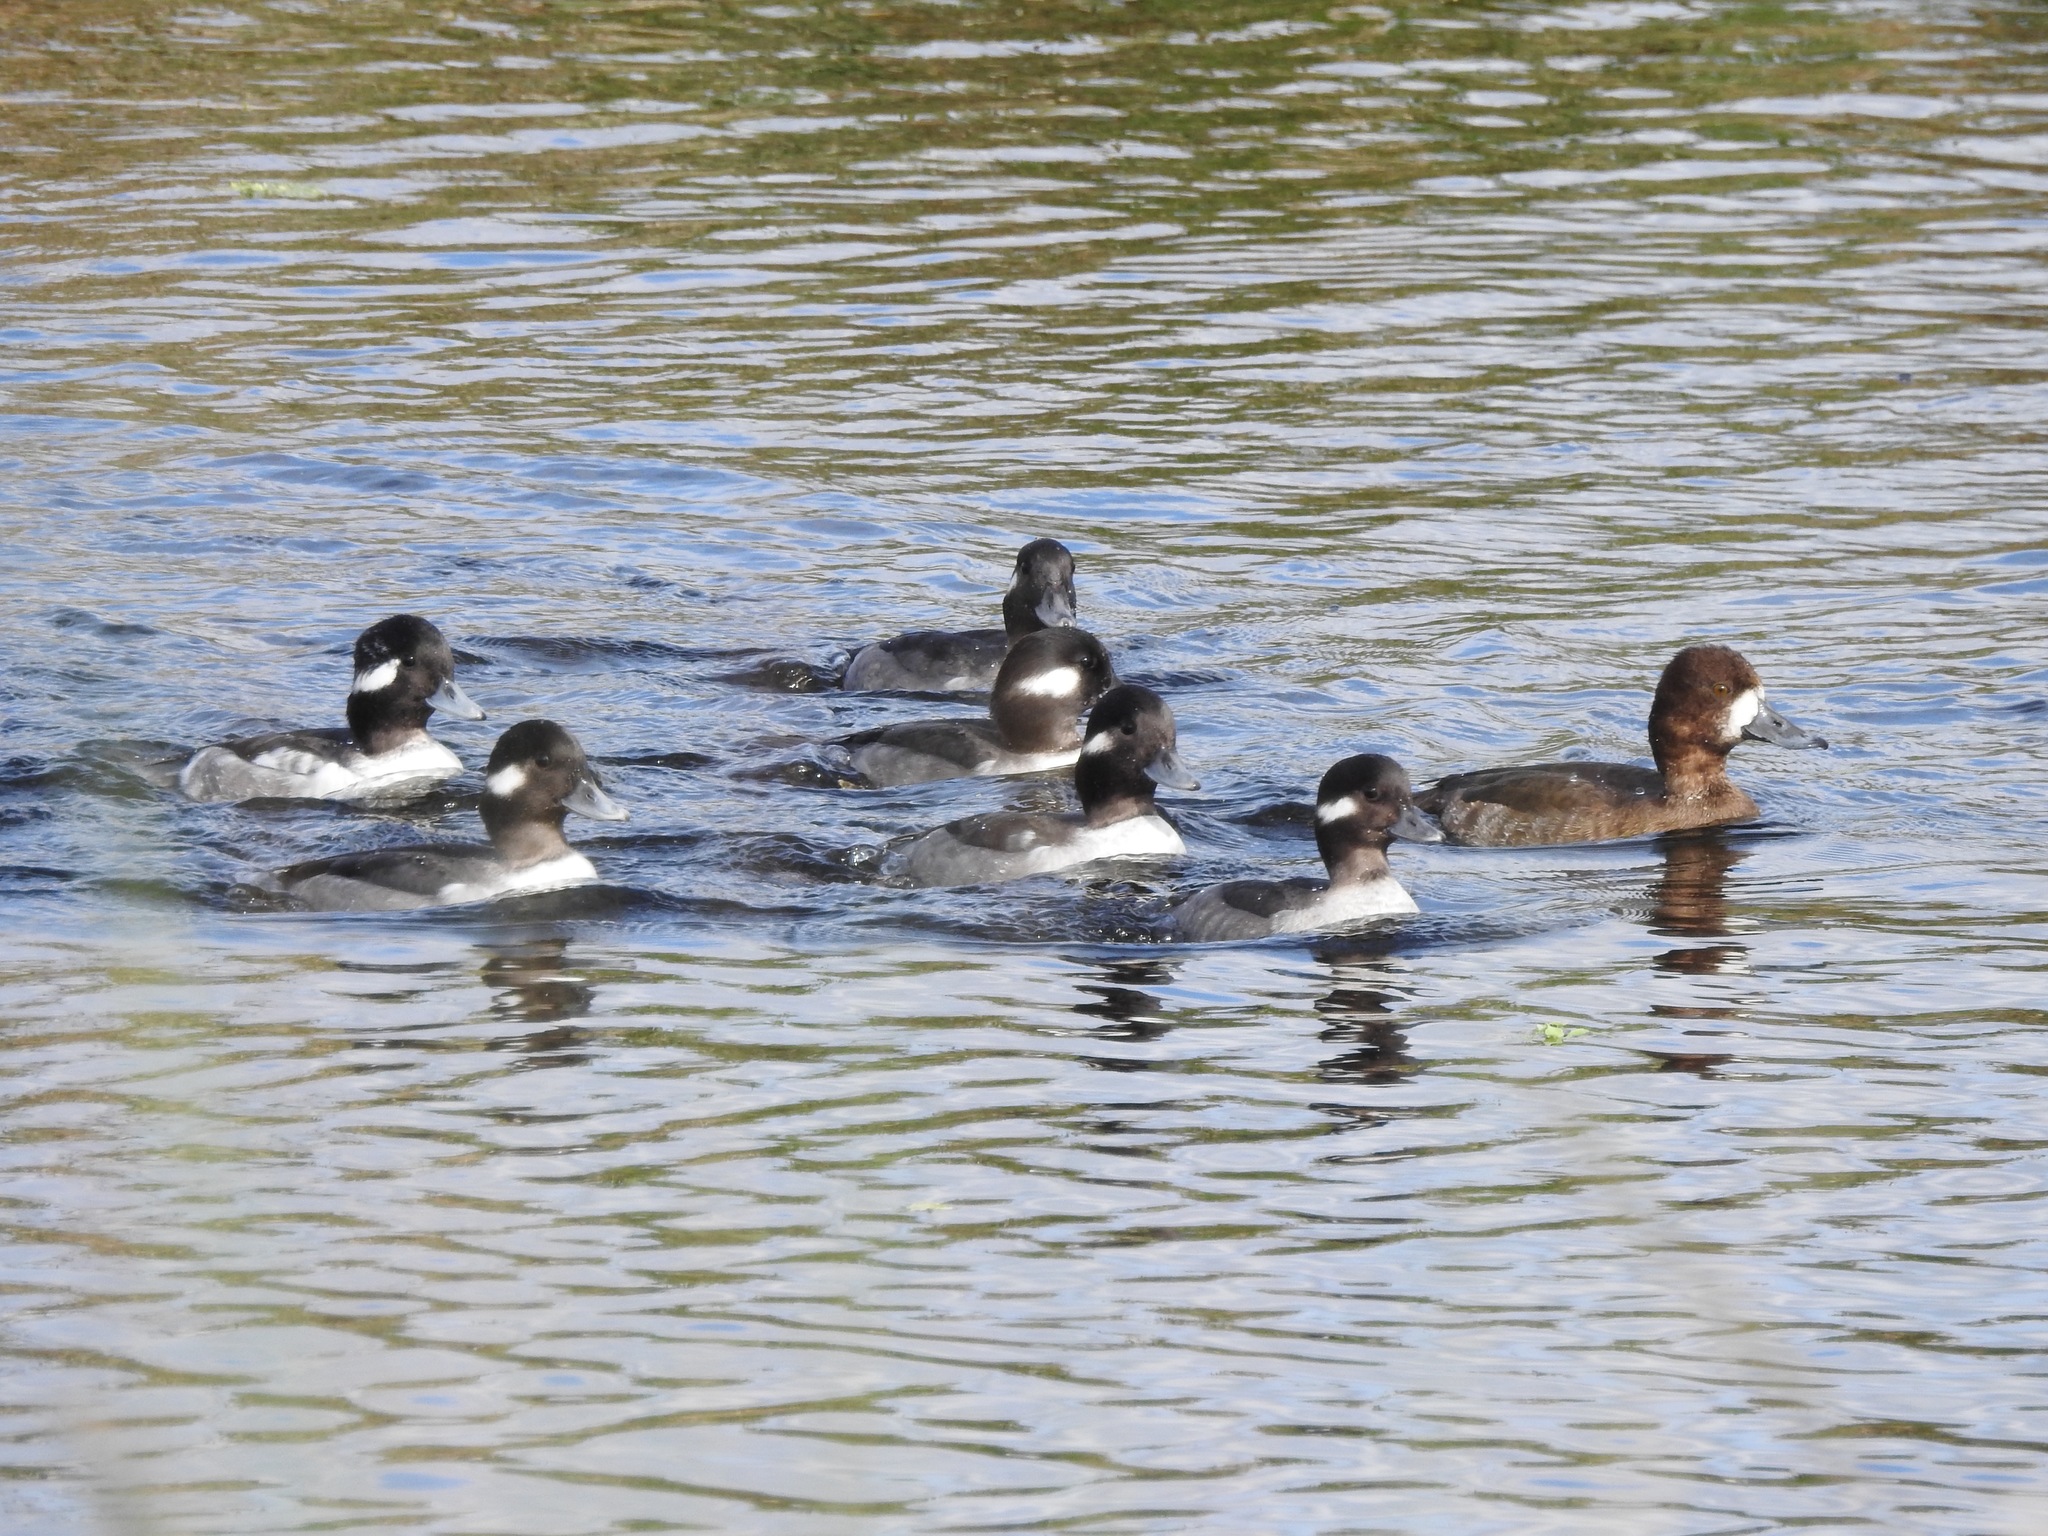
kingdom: Animalia
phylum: Chordata
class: Aves
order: Anseriformes
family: Anatidae
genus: Bucephala
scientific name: Bucephala albeola
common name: Bufflehead
